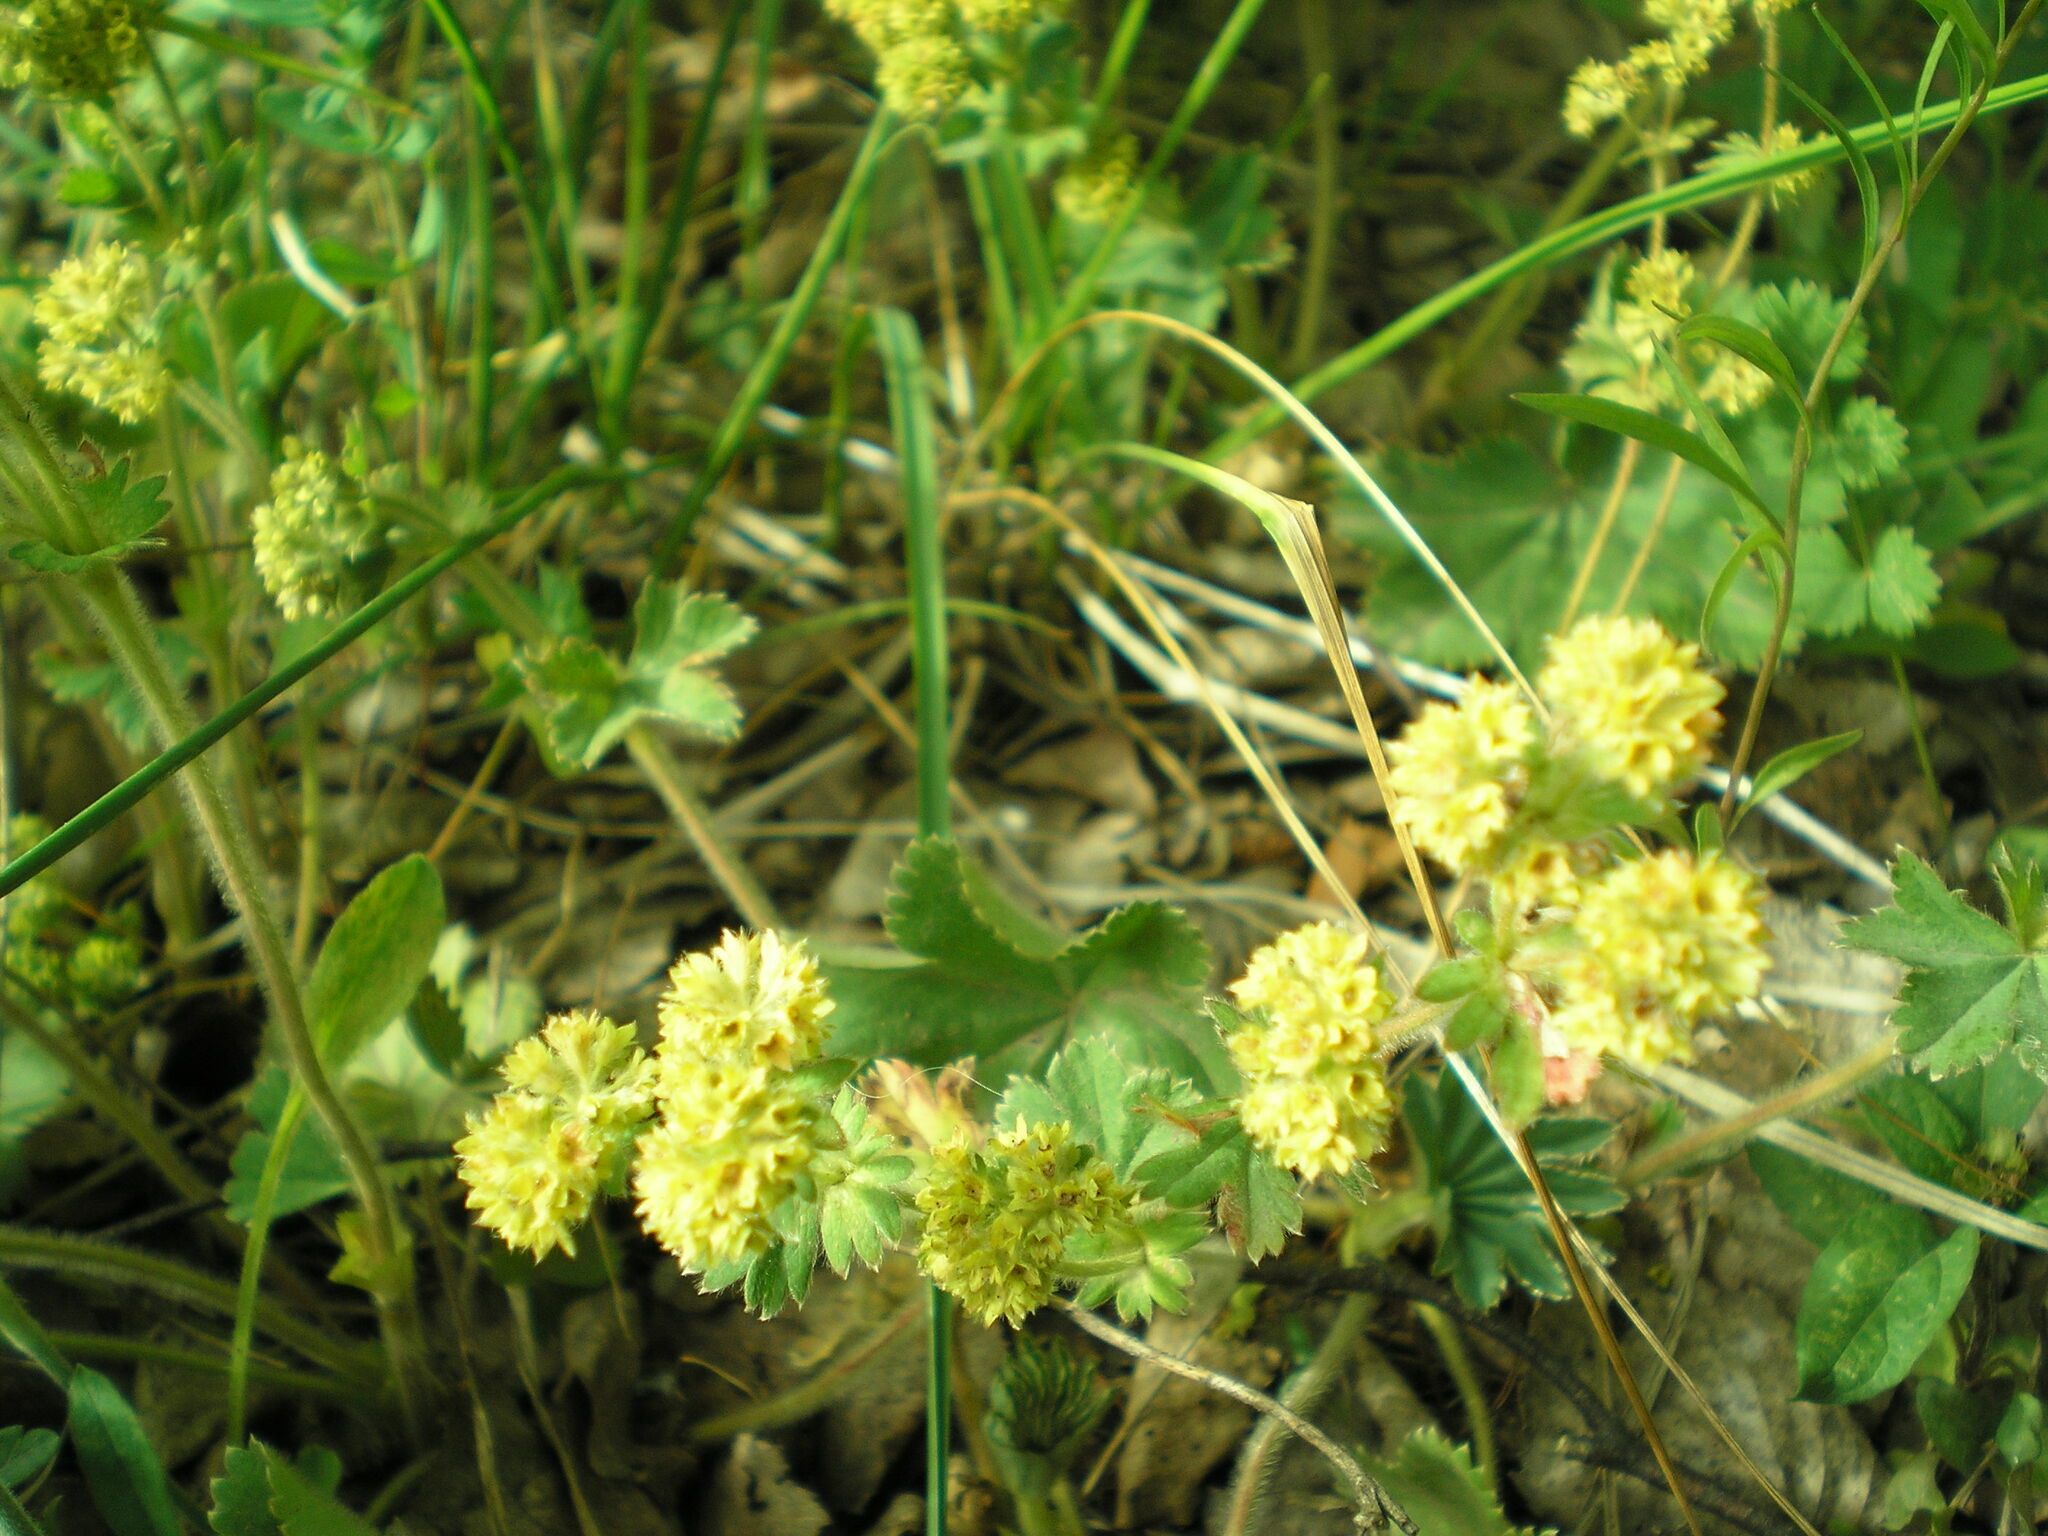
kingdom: Plantae
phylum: Tracheophyta
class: Magnoliopsida
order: Rosales
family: Rosaceae
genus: Alchemilla
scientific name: Alchemilla propinqua
